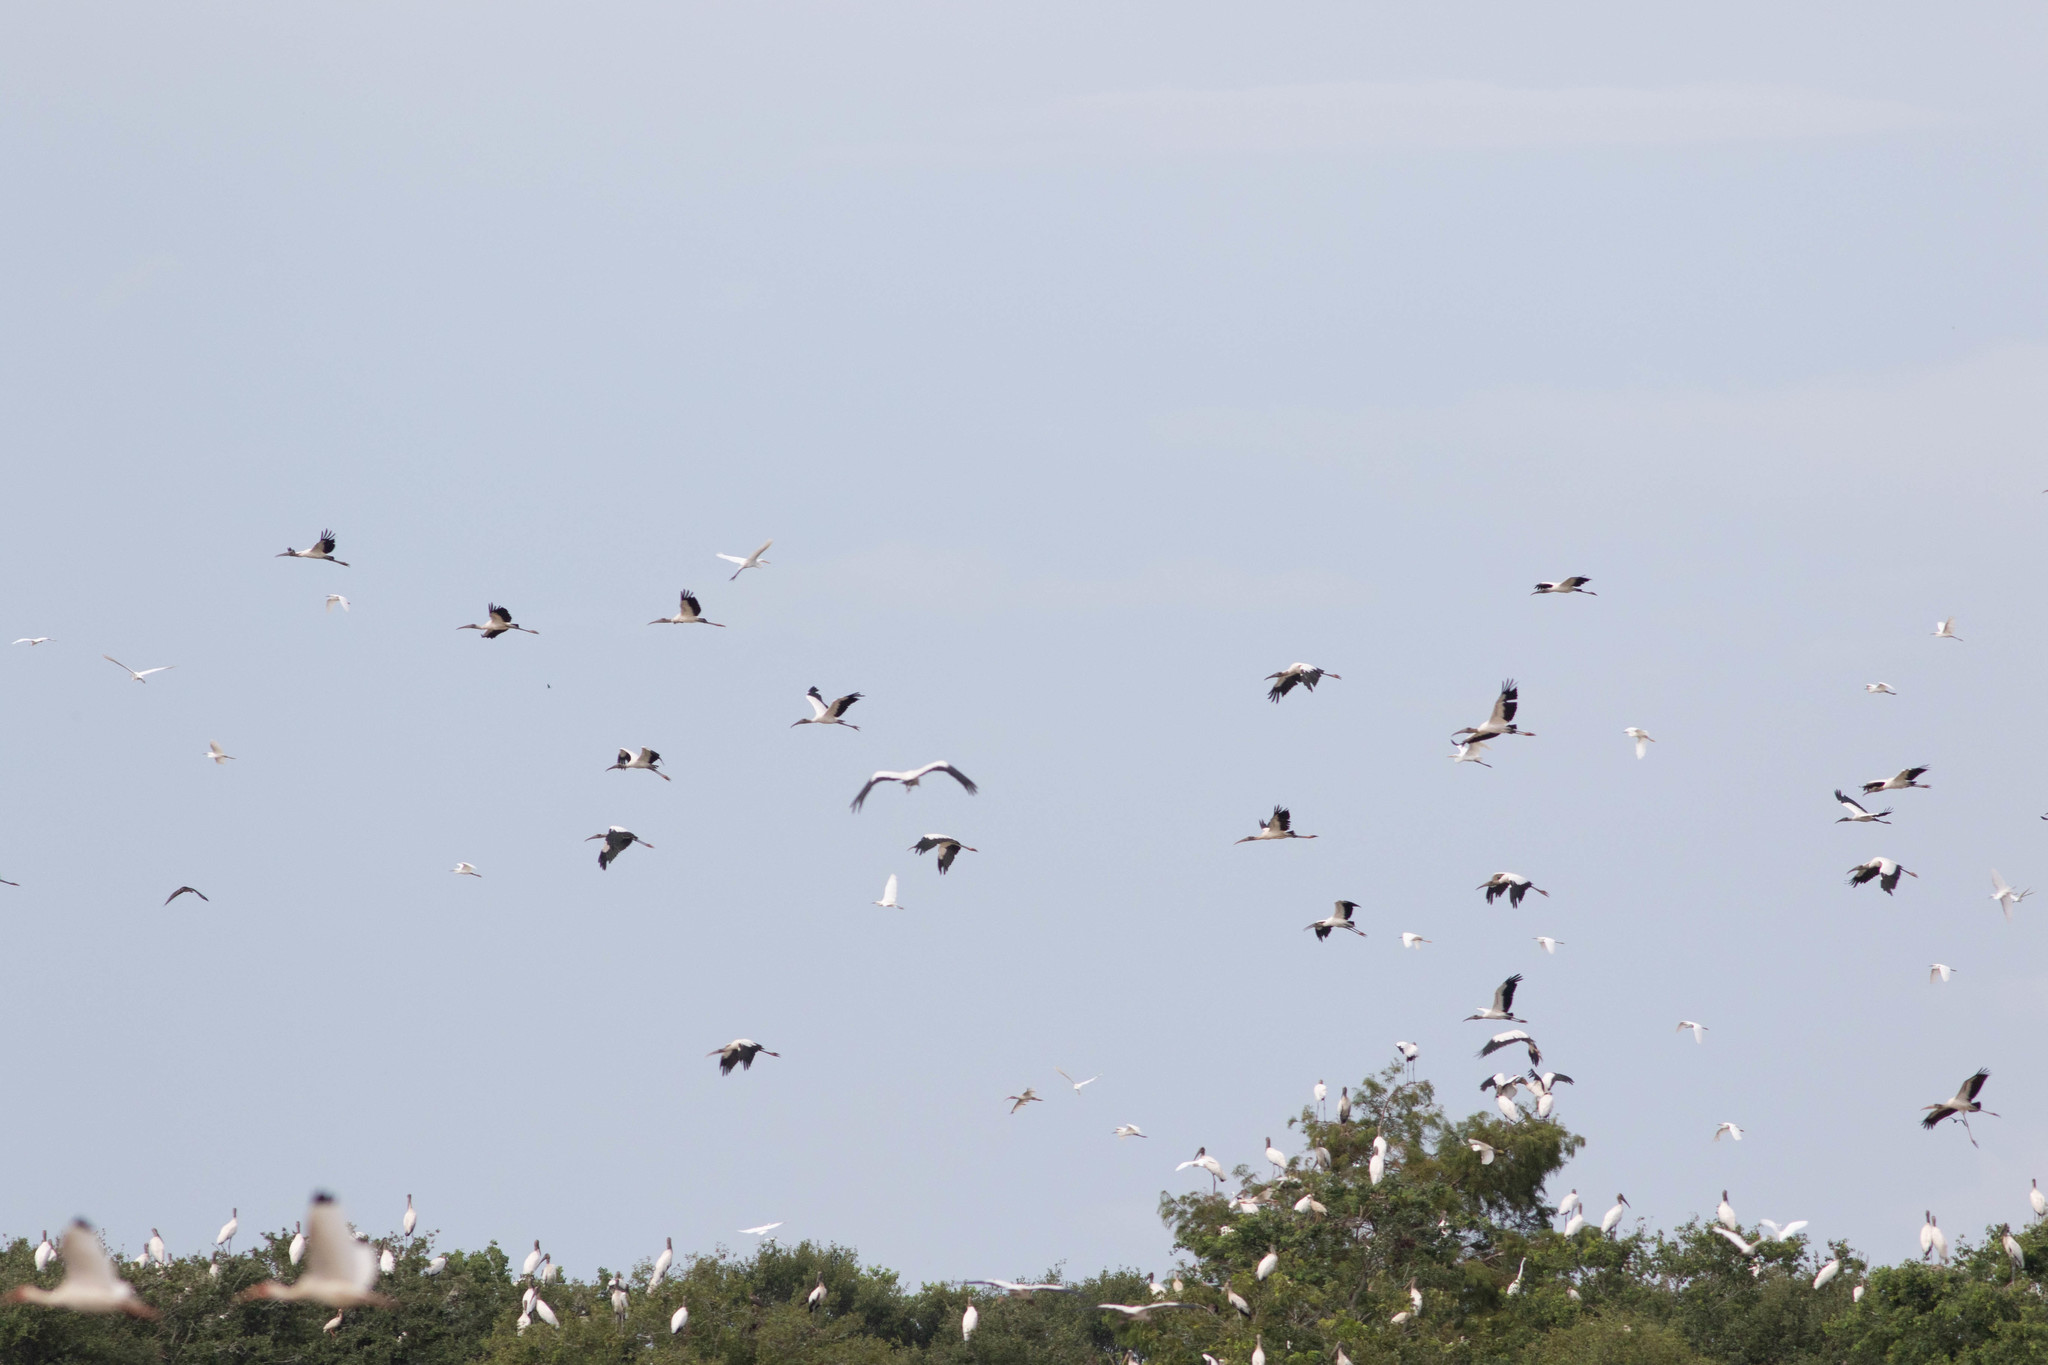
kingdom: Animalia
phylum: Chordata
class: Aves
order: Ciconiiformes
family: Ciconiidae
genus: Mycteria
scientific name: Mycteria americana
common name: Wood stork
